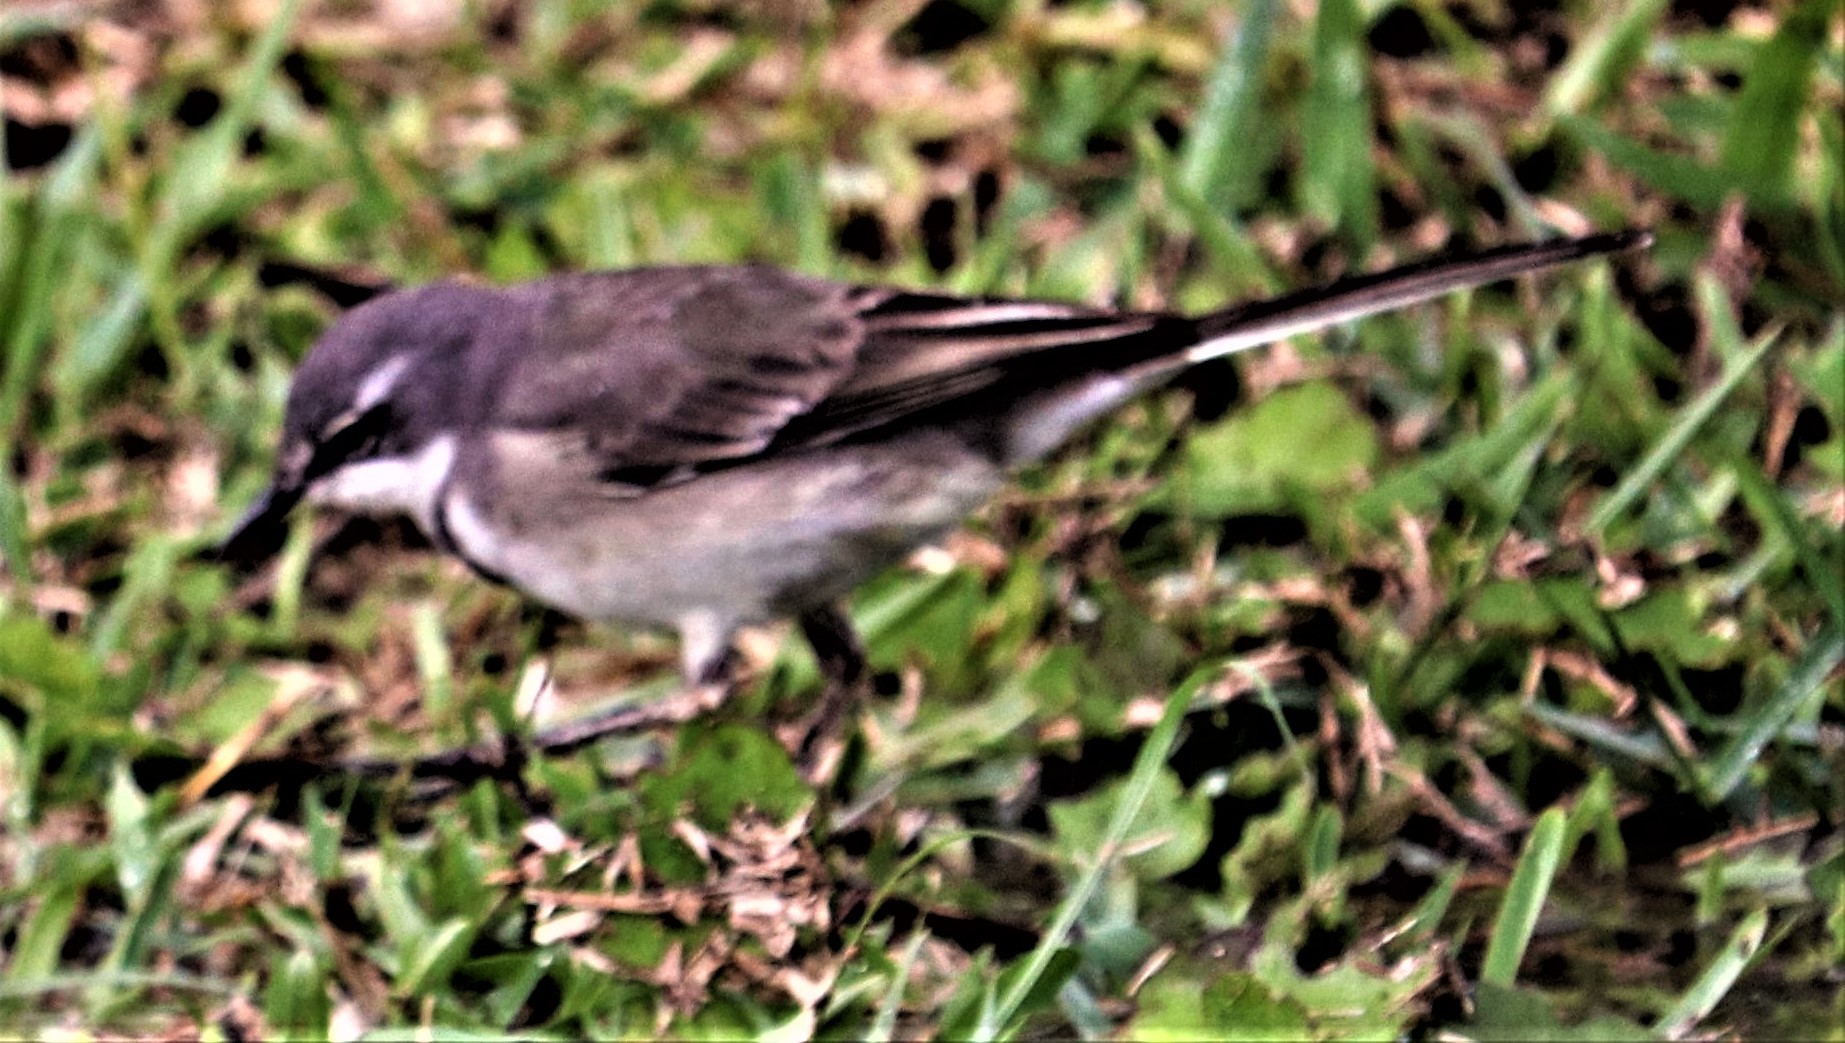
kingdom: Animalia
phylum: Chordata
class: Aves
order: Passeriformes
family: Motacillidae
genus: Motacilla
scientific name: Motacilla capensis
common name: Cape wagtail
